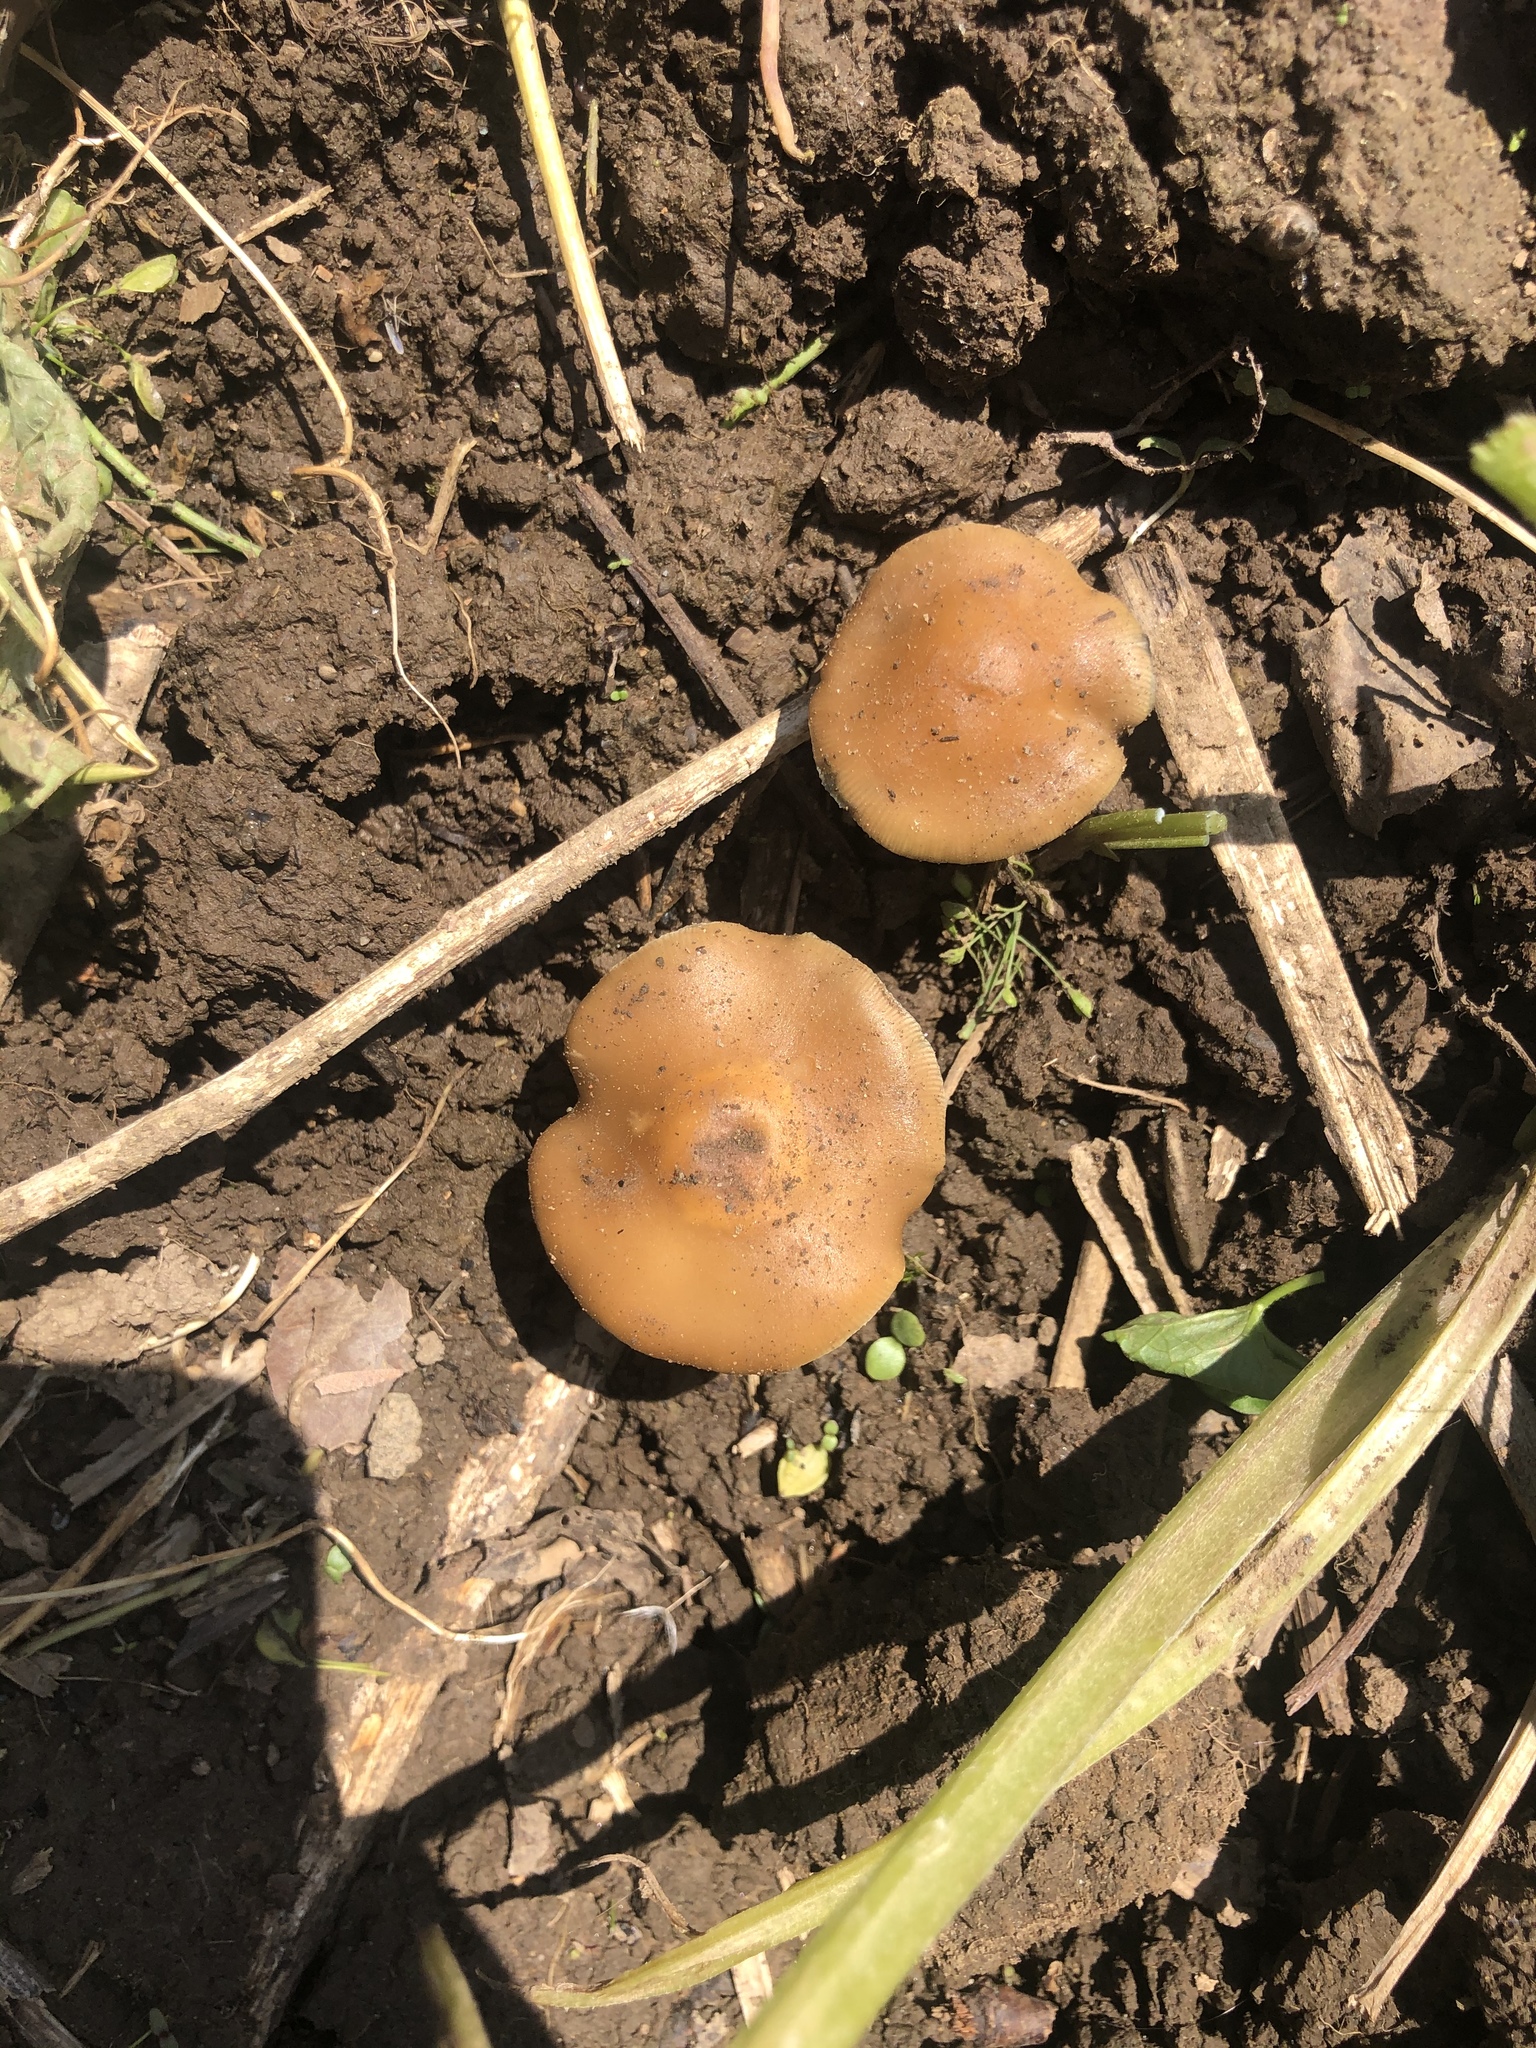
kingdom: Fungi
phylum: Basidiomycota
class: Agaricomycetes
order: Agaricales
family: Hymenogastraceae
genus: Psilocybe
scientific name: Psilocybe ovoideocystidiata
